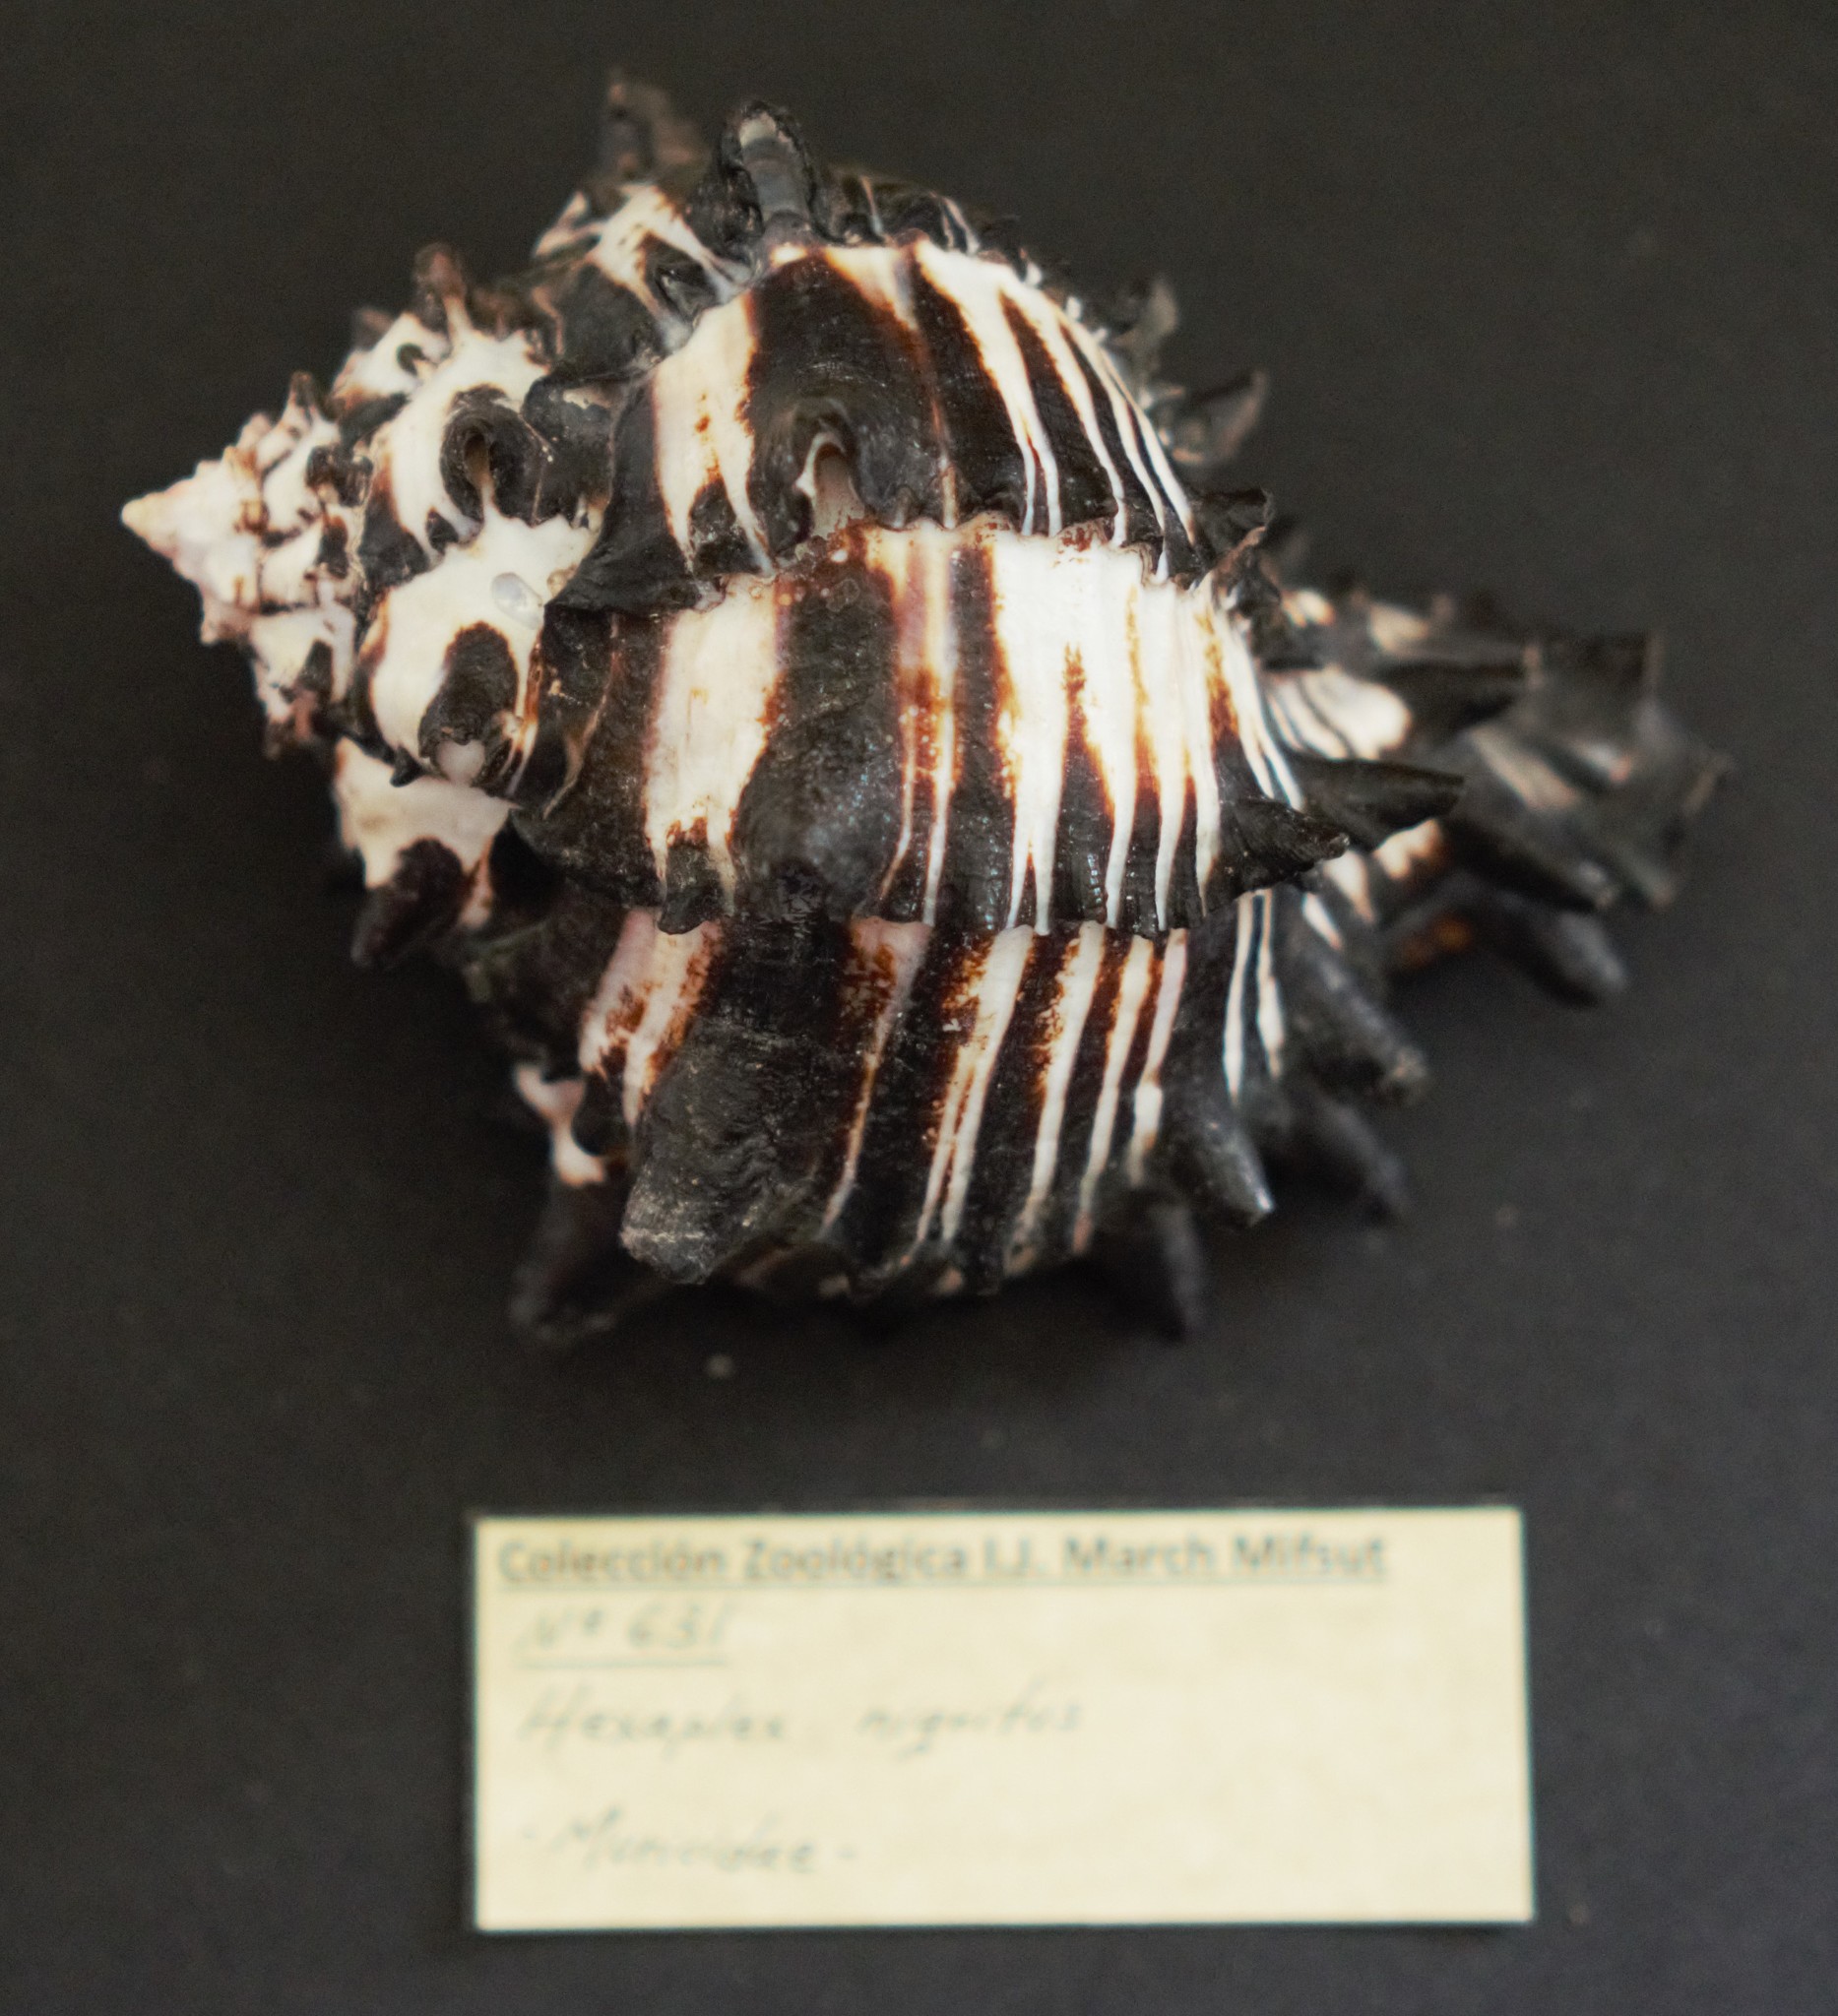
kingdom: Animalia
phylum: Mollusca
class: Gastropoda
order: Neogastropoda
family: Muricidae
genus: Muricanthus
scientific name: Muricanthus nigritus
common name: Black murex
